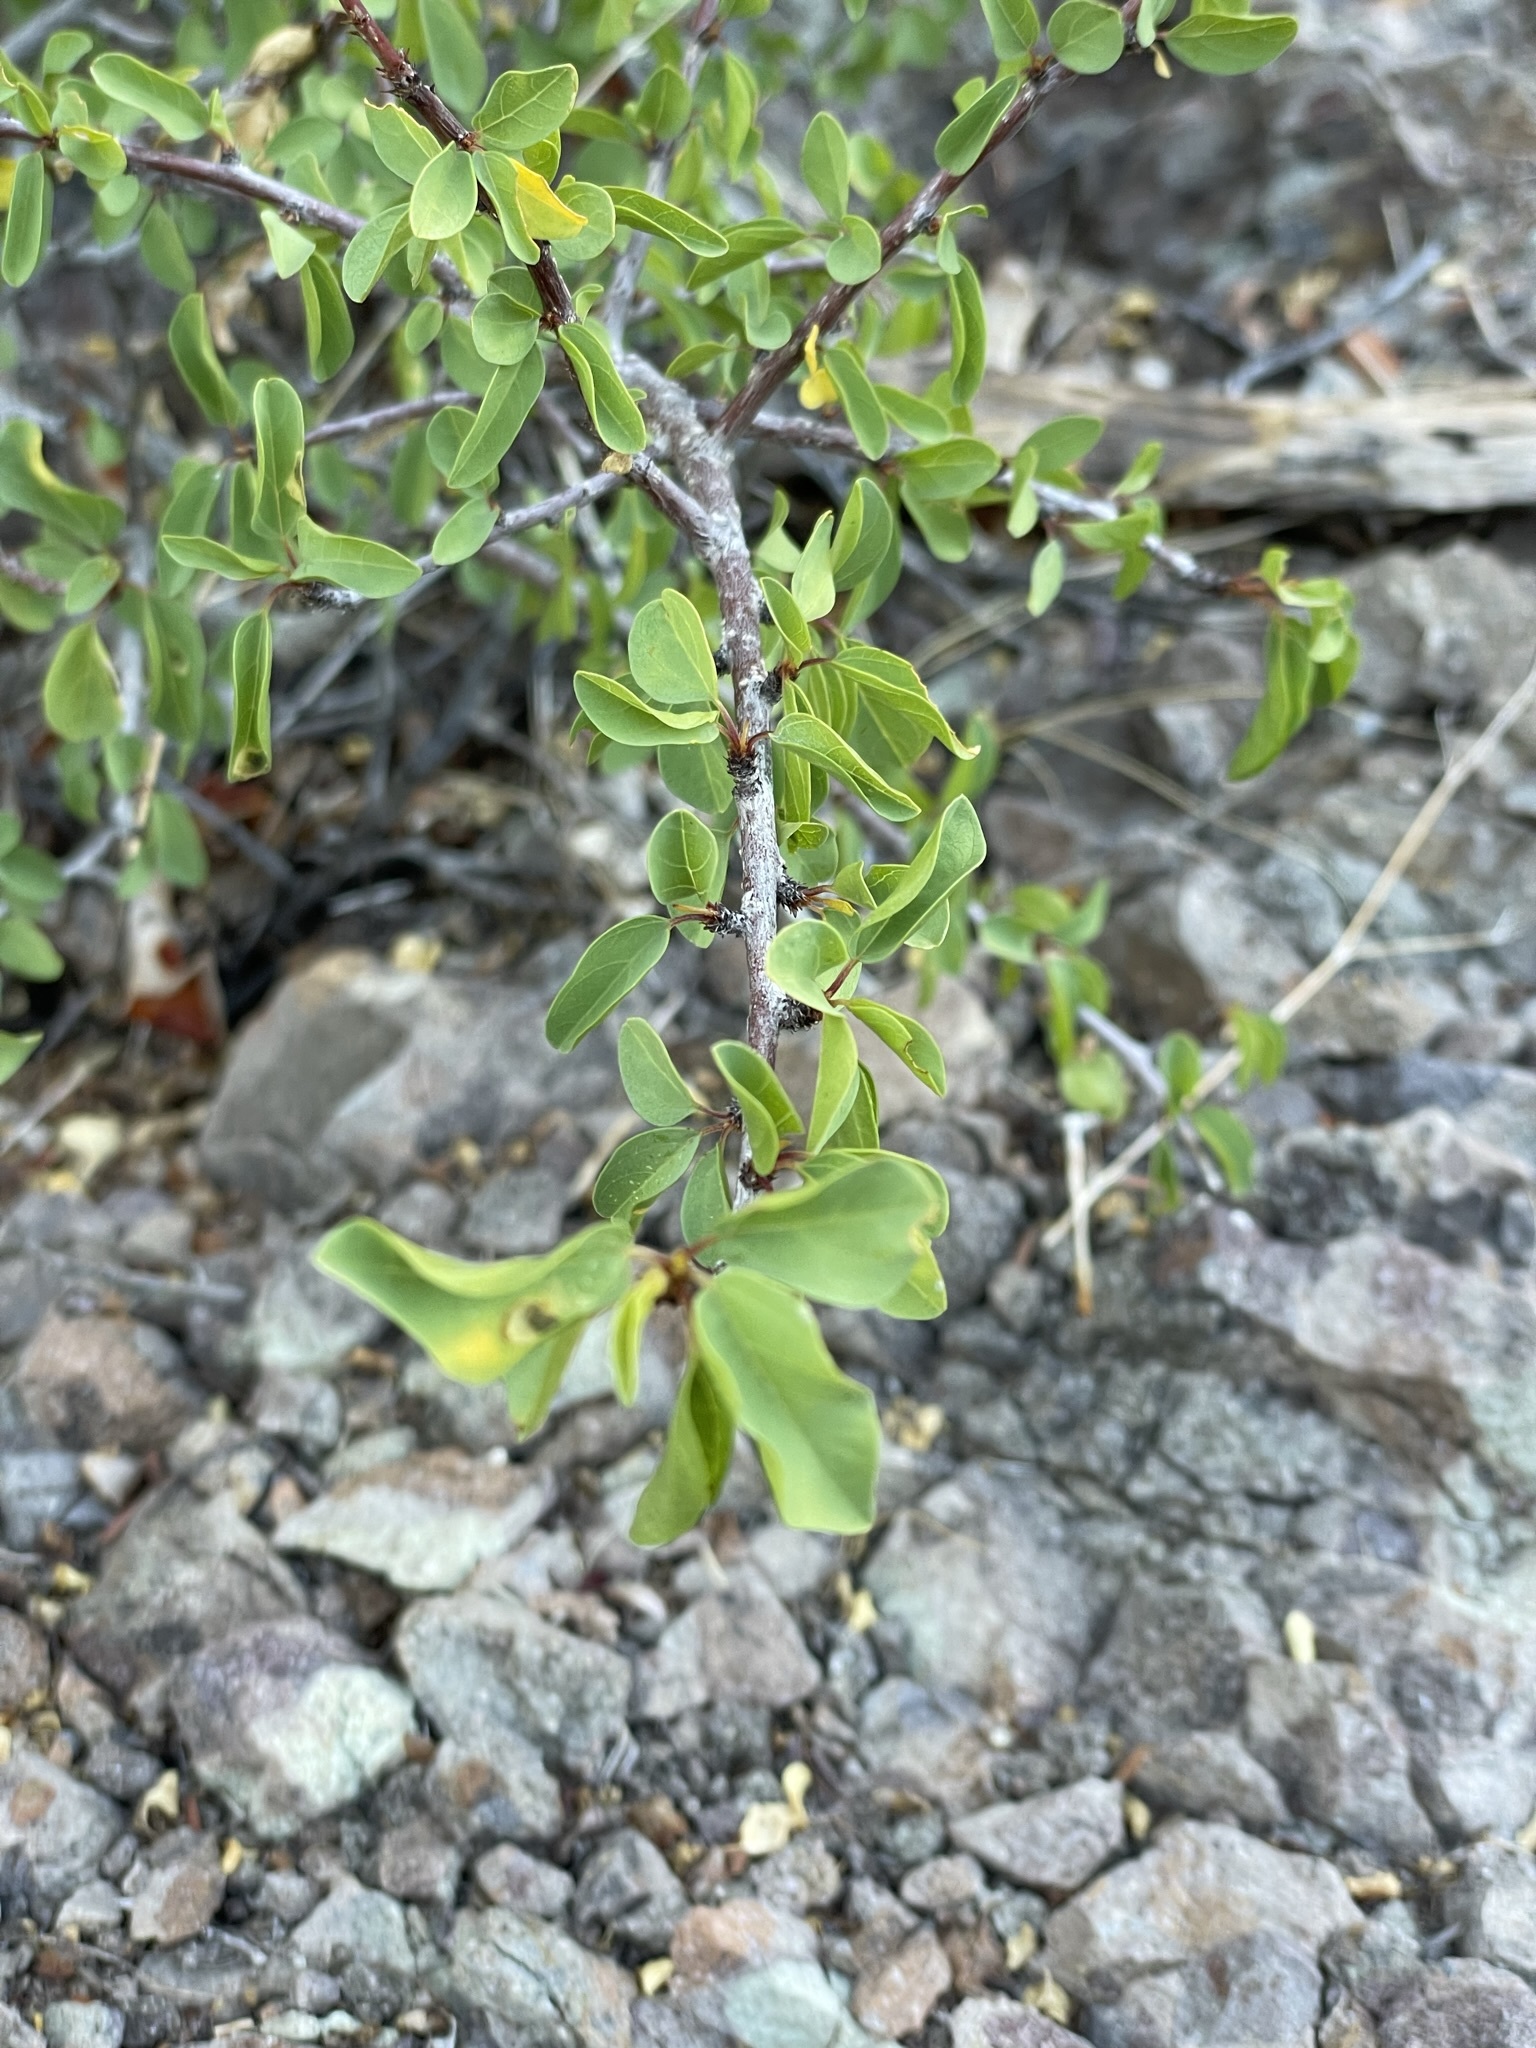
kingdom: Plantae
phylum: Tracheophyta
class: Magnoliopsida
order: Rosales
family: Rhamnaceae
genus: Colubrina
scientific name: Colubrina viridis
